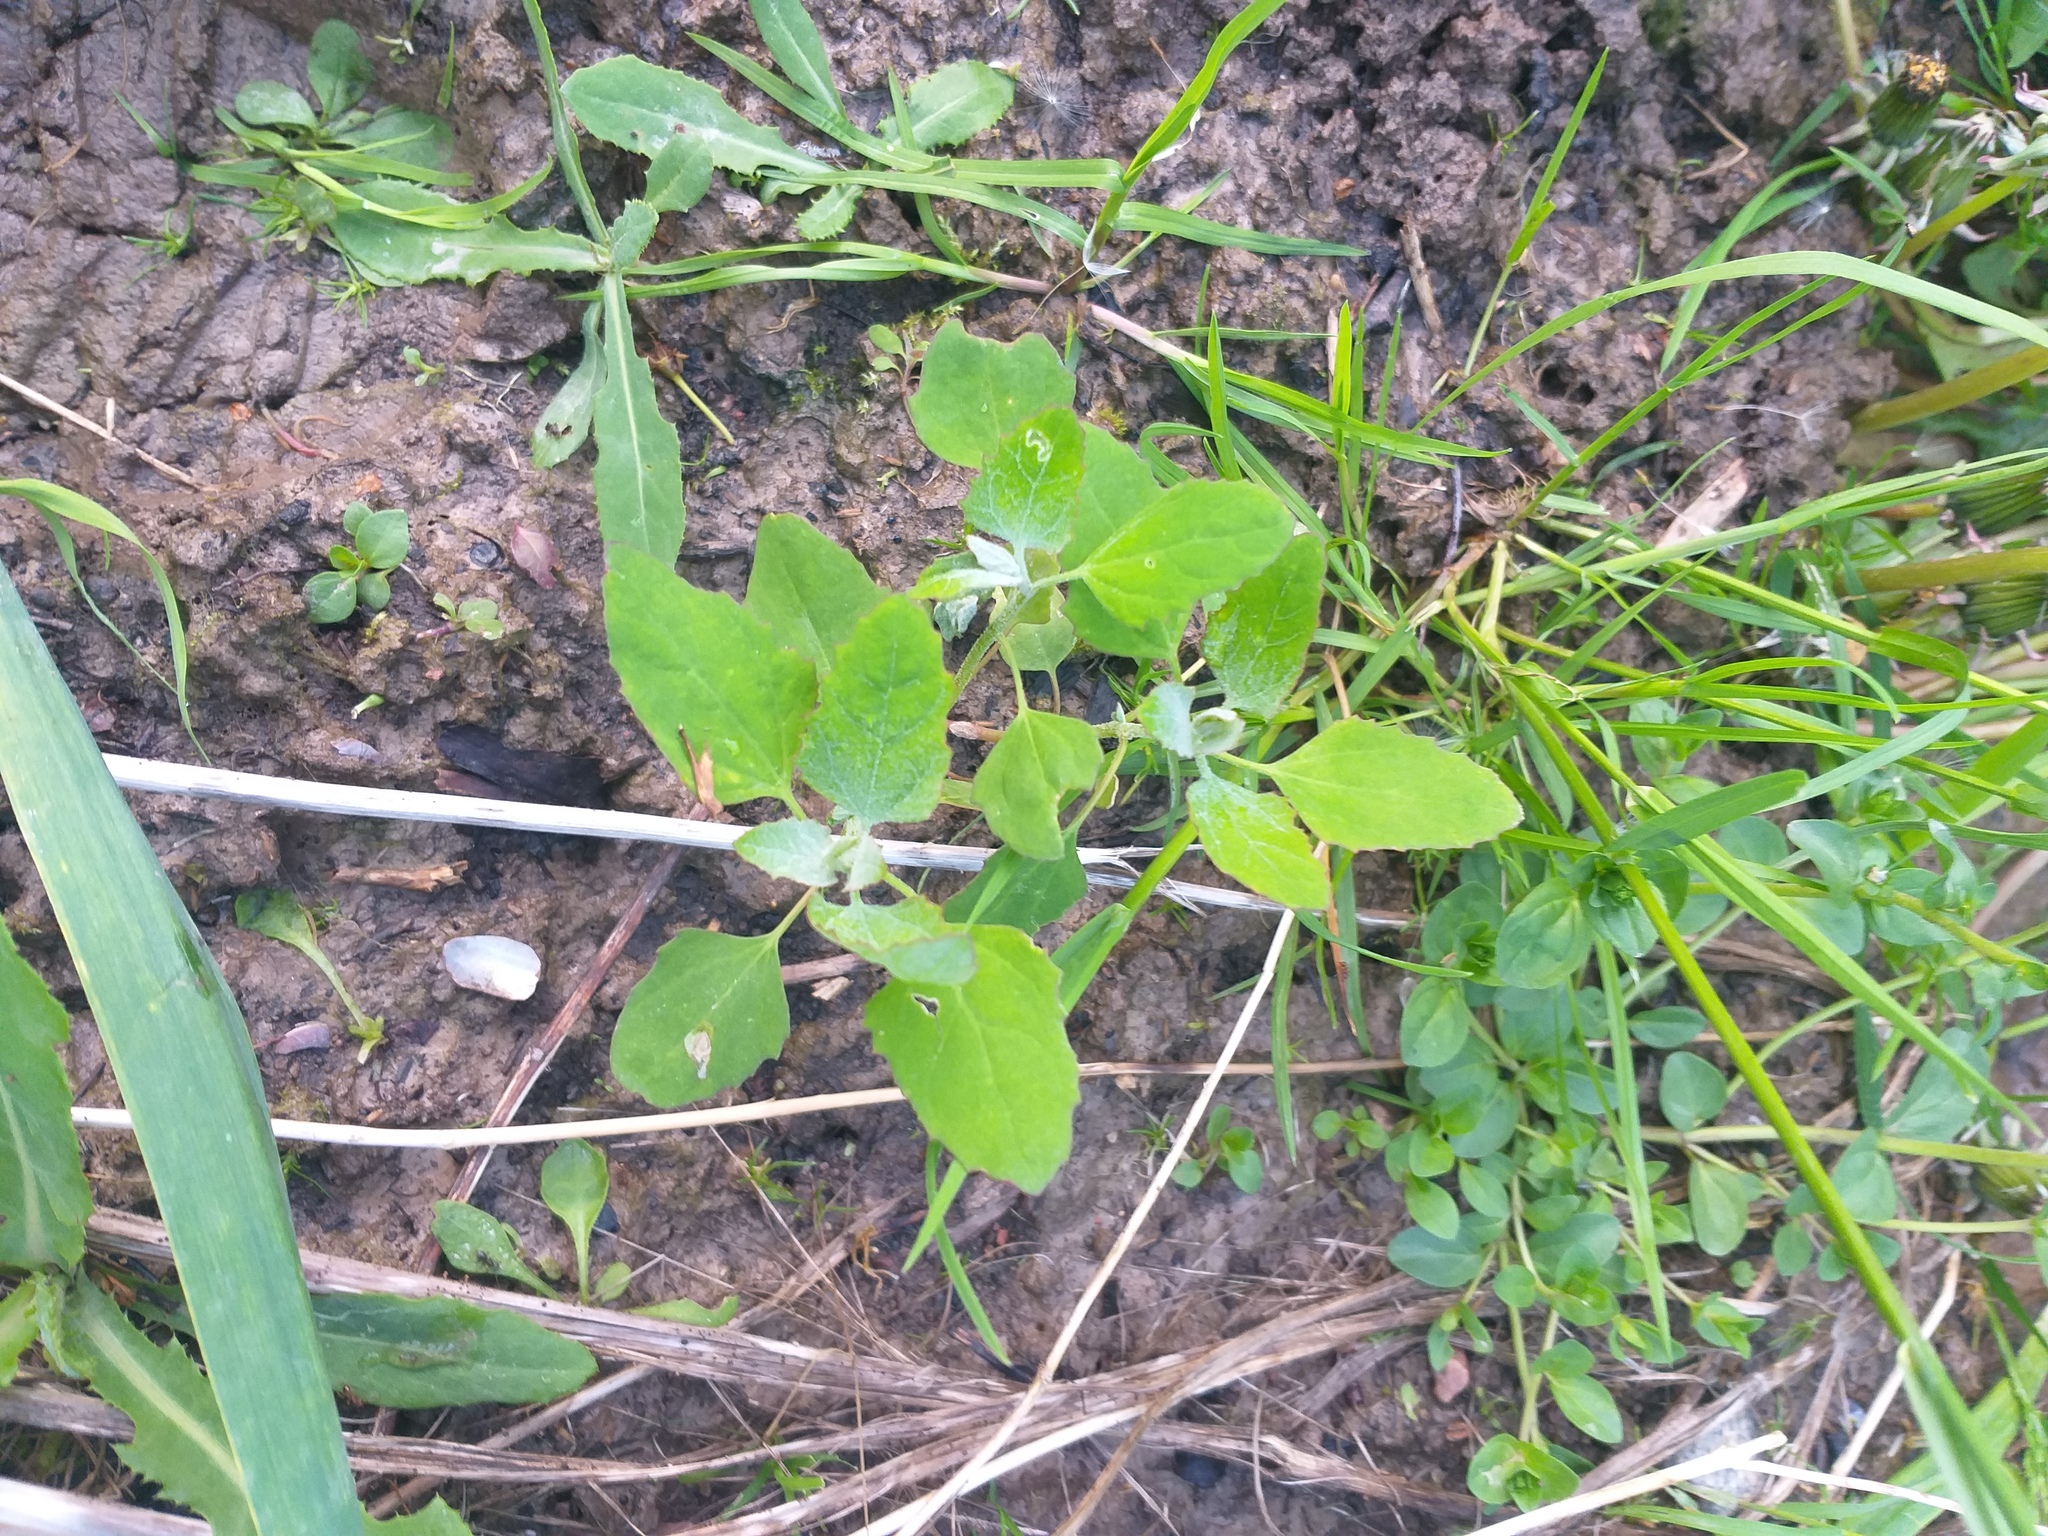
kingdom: Plantae
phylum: Tracheophyta
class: Magnoliopsida
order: Caryophyllales
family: Amaranthaceae
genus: Chenopodium
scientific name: Chenopodium album
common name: Fat-hen
